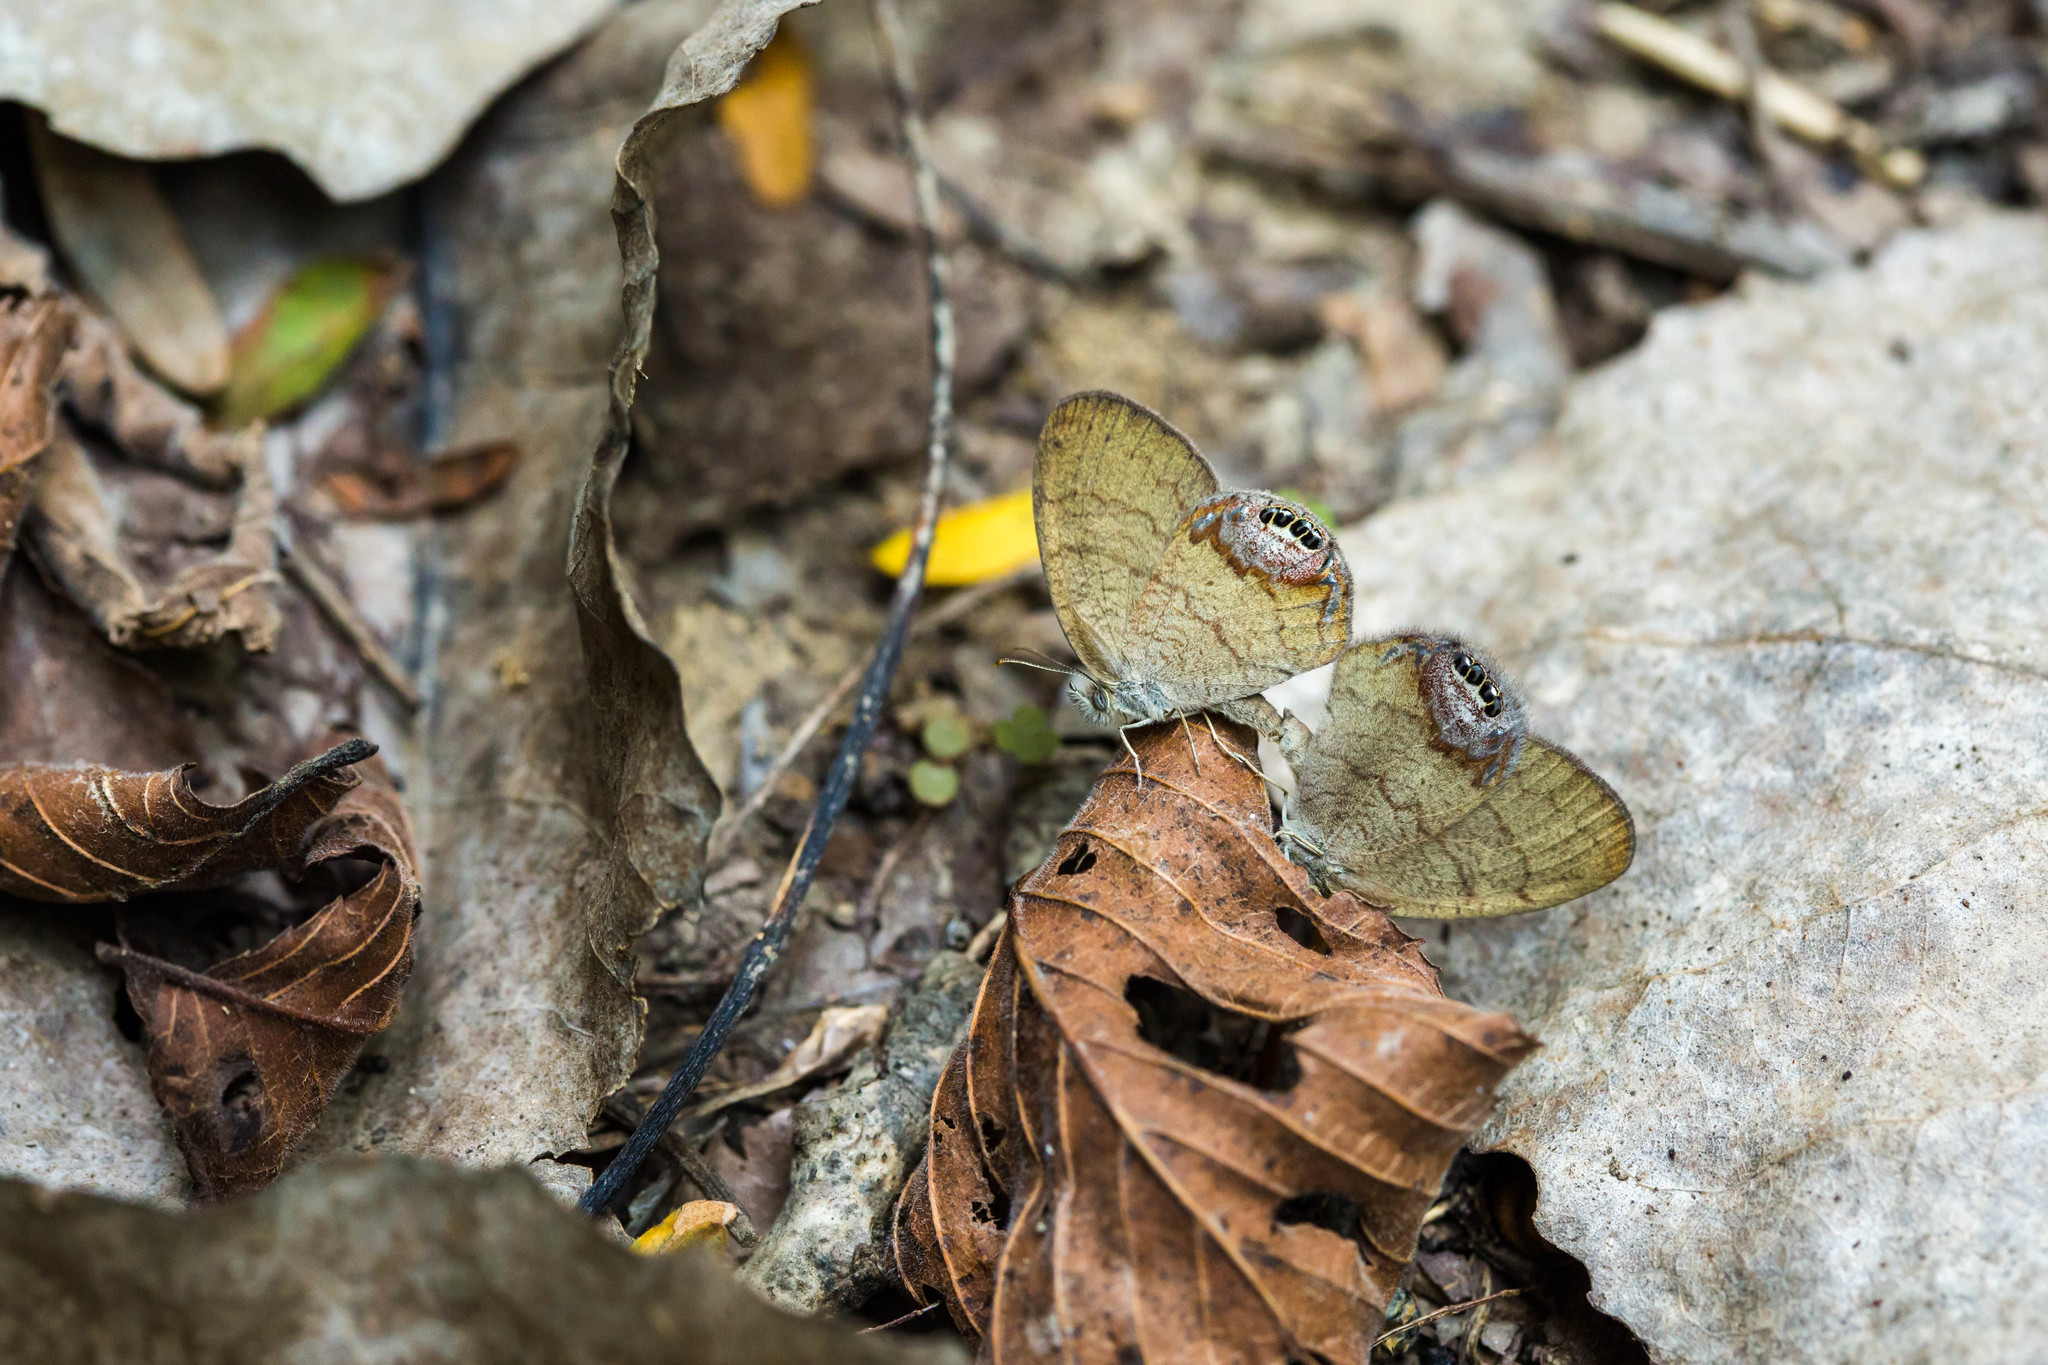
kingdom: Animalia
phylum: Arthropoda
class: Insecta
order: Lepidoptera
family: Nymphalidae
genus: Euptychia
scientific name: Euptychia cornelius
